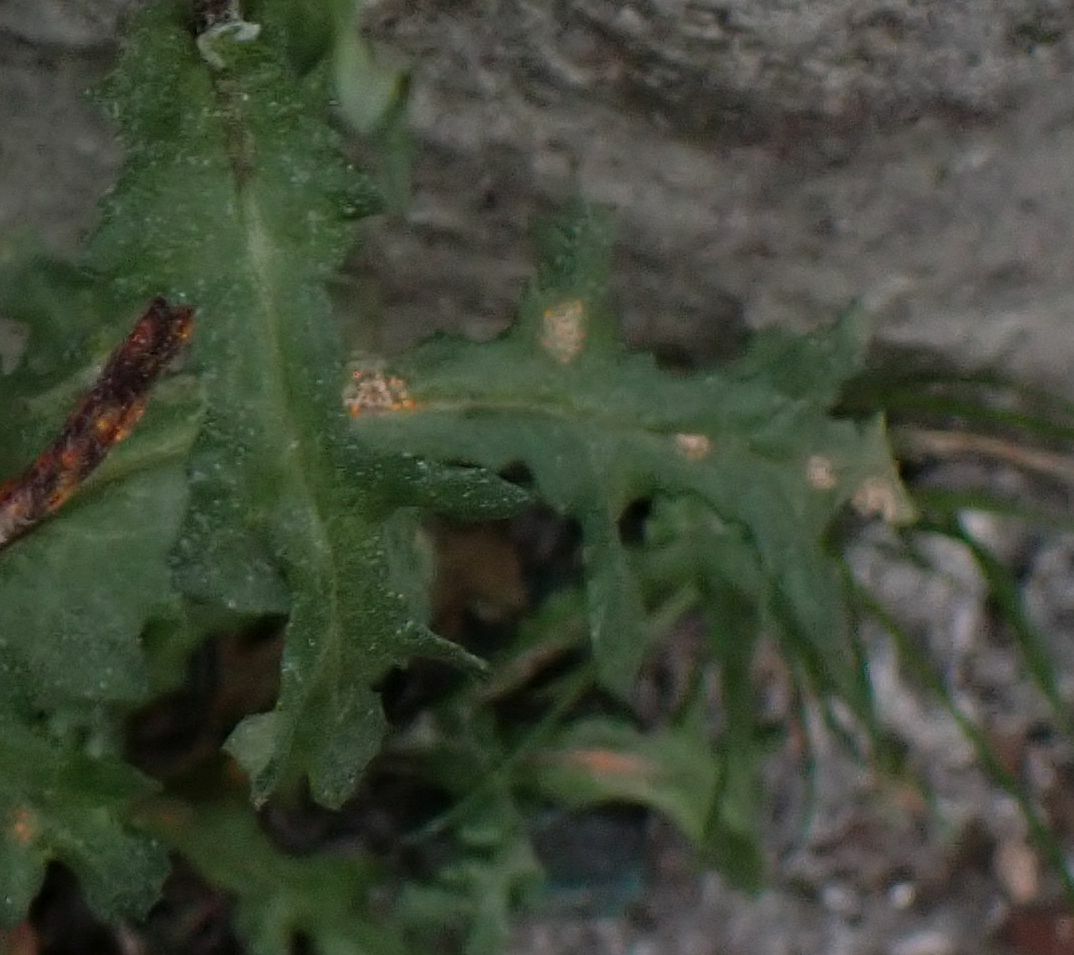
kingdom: Fungi
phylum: Basidiomycota
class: Pucciniomycetes
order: Pucciniales
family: Pucciniaceae
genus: Puccinia
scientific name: Puccinia lagenophorae
